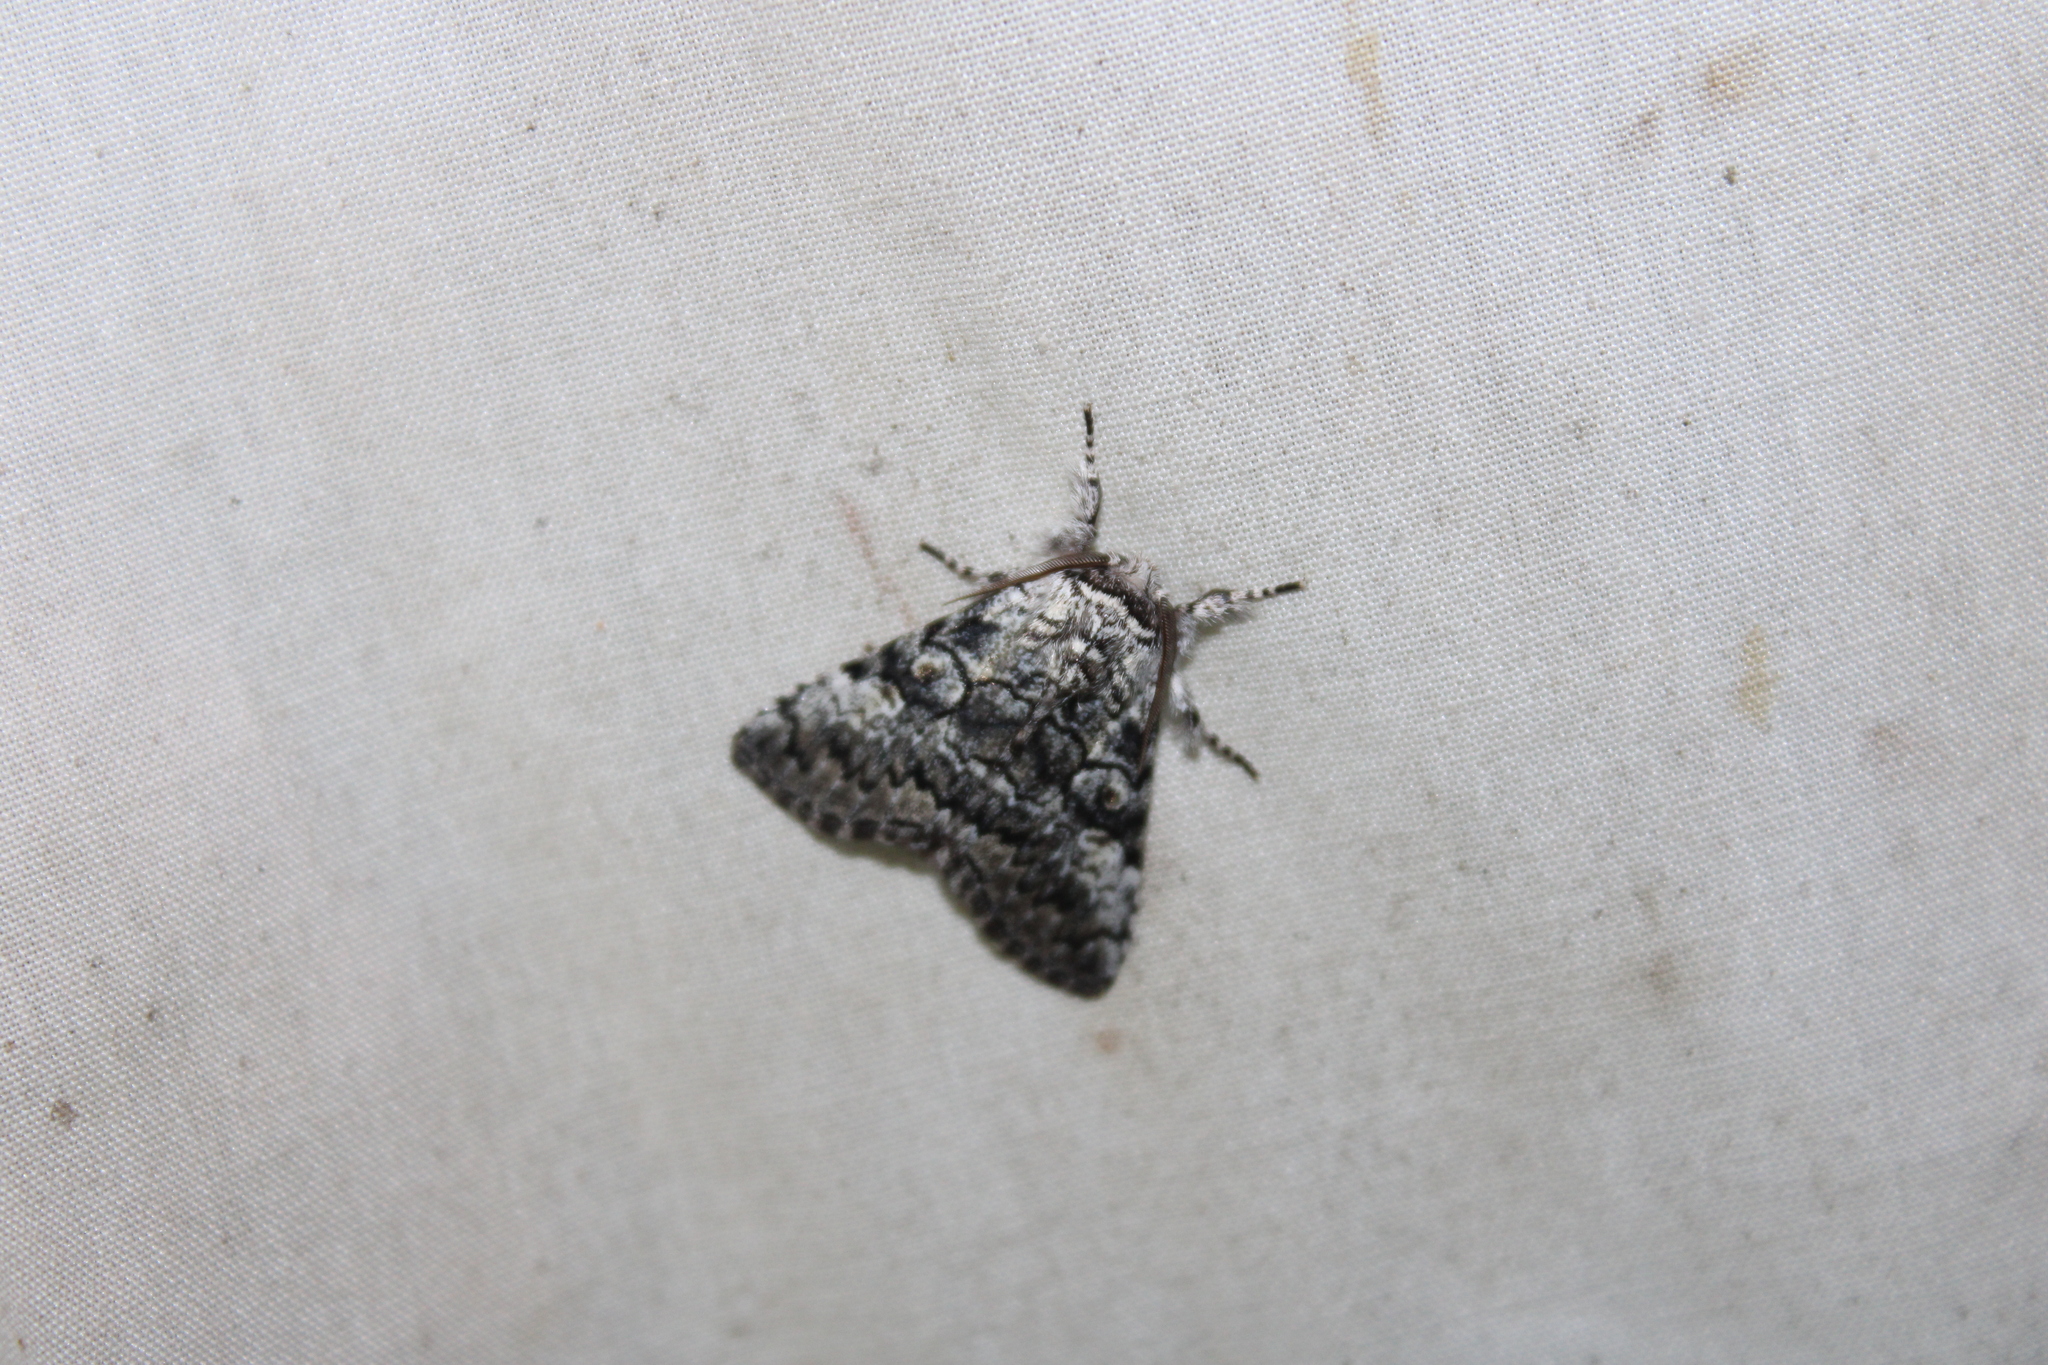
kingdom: Animalia
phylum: Arthropoda
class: Insecta
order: Lepidoptera
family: Noctuidae
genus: Charadra
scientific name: Charadra deridens
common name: Marbled tuffet
